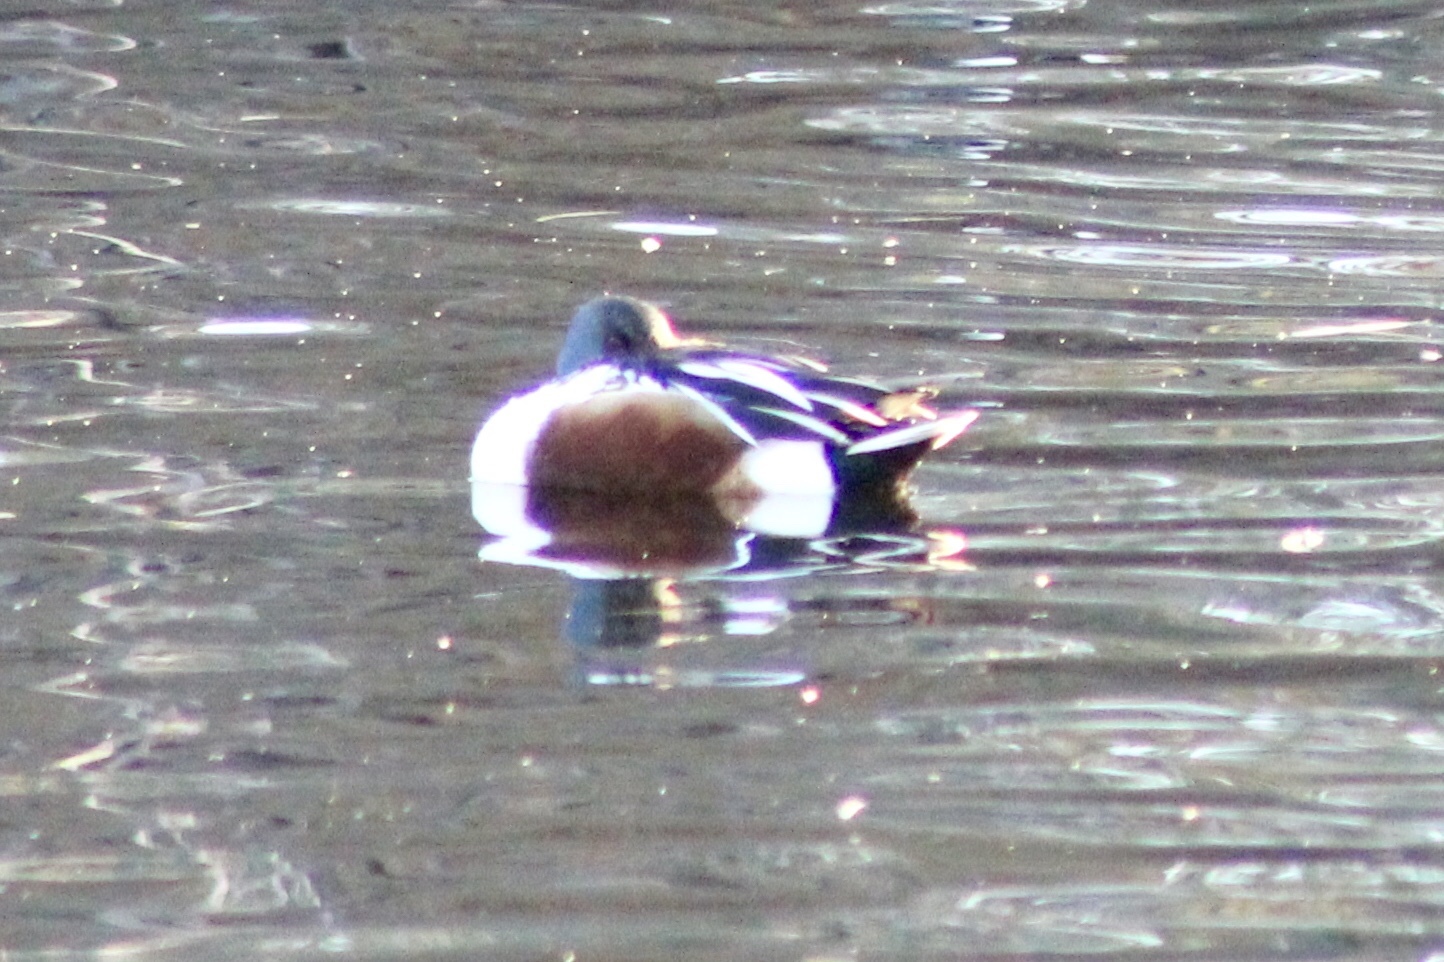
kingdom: Animalia
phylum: Chordata
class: Aves
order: Anseriformes
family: Anatidae
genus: Spatula
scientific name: Spatula clypeata
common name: Northern shoveler
